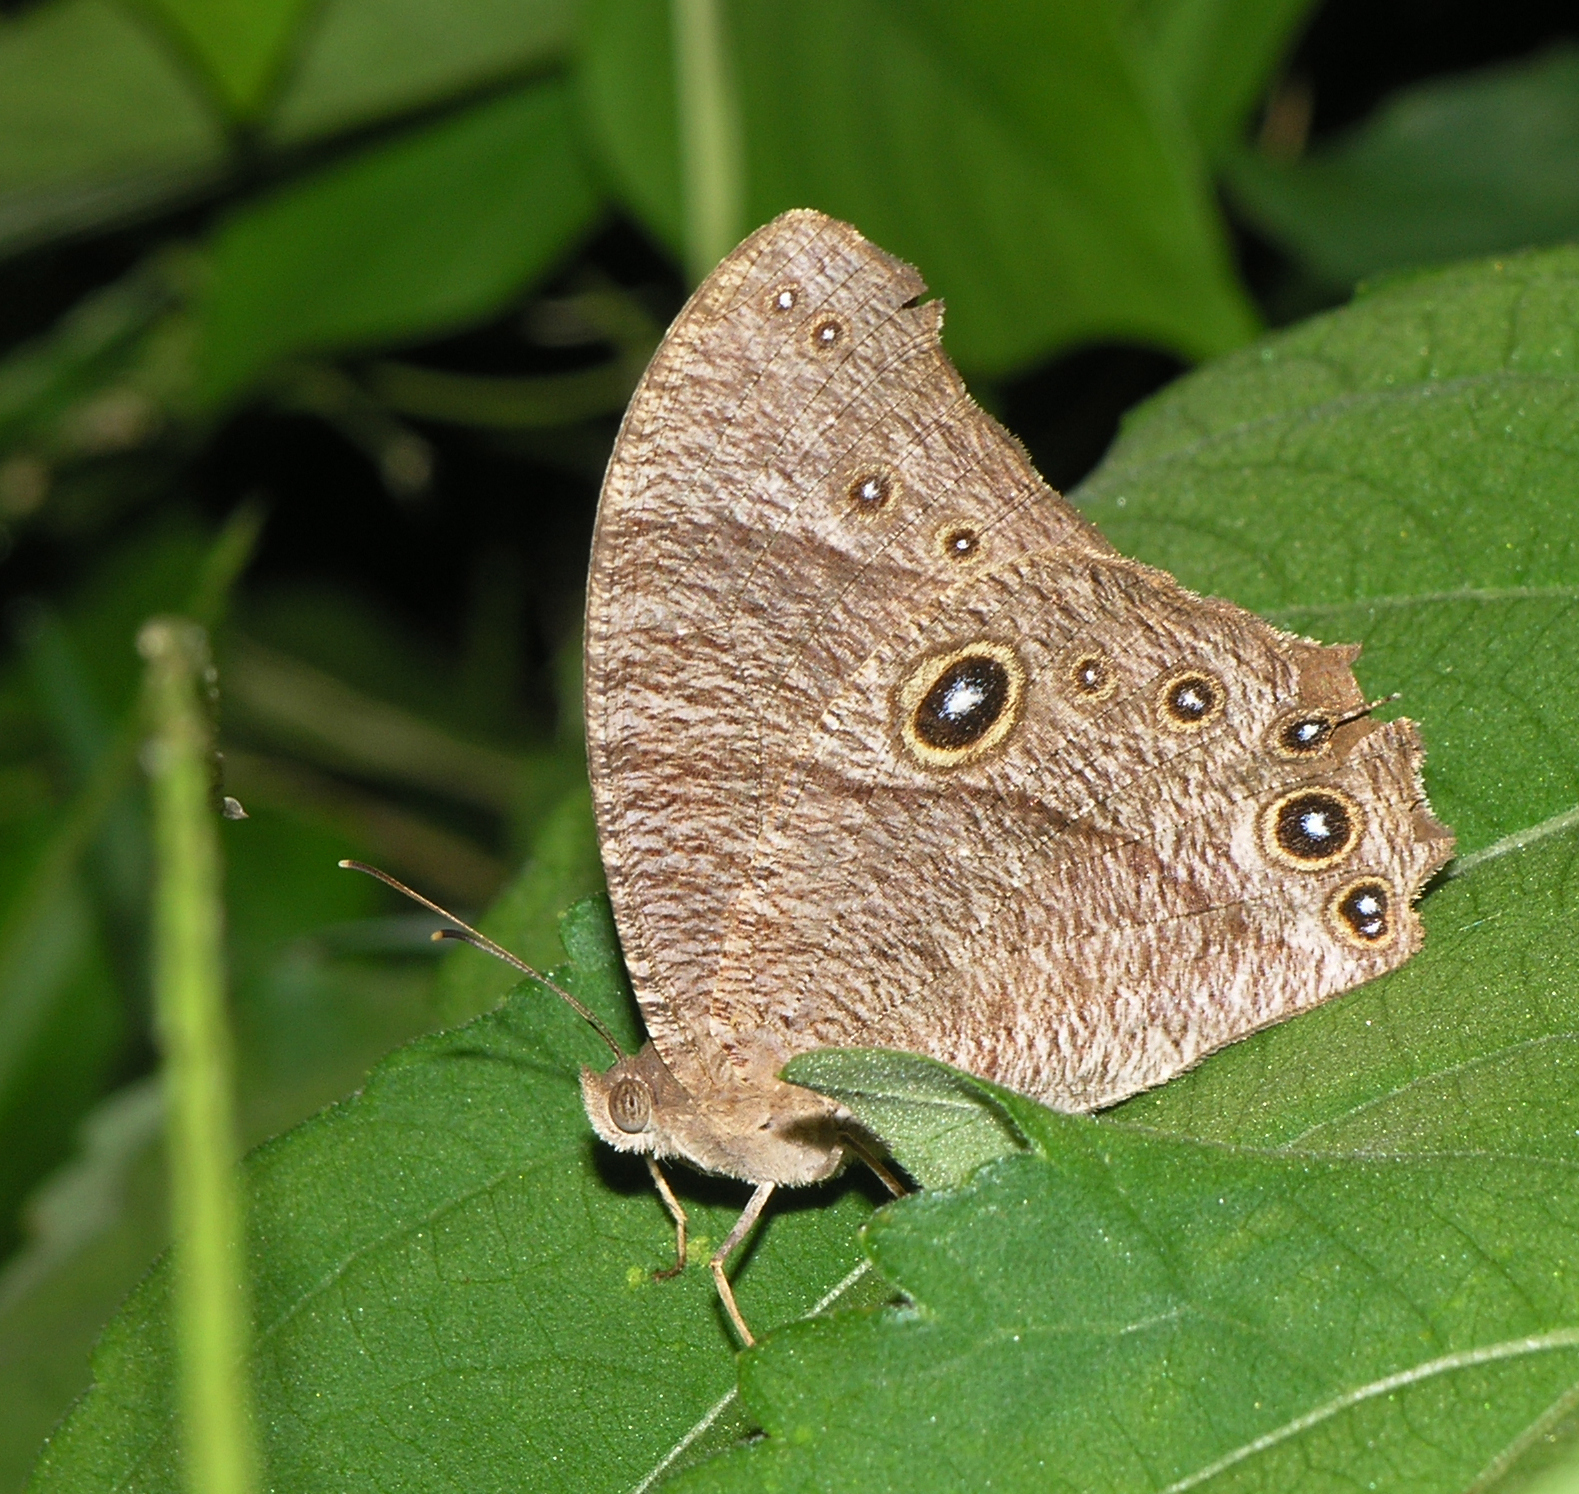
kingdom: Animalia
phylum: Arthropoda
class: Insecta
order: Lepidoptera
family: Nymphalidae
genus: Melanitis
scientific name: Melanitis leda
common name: Twilight brown
